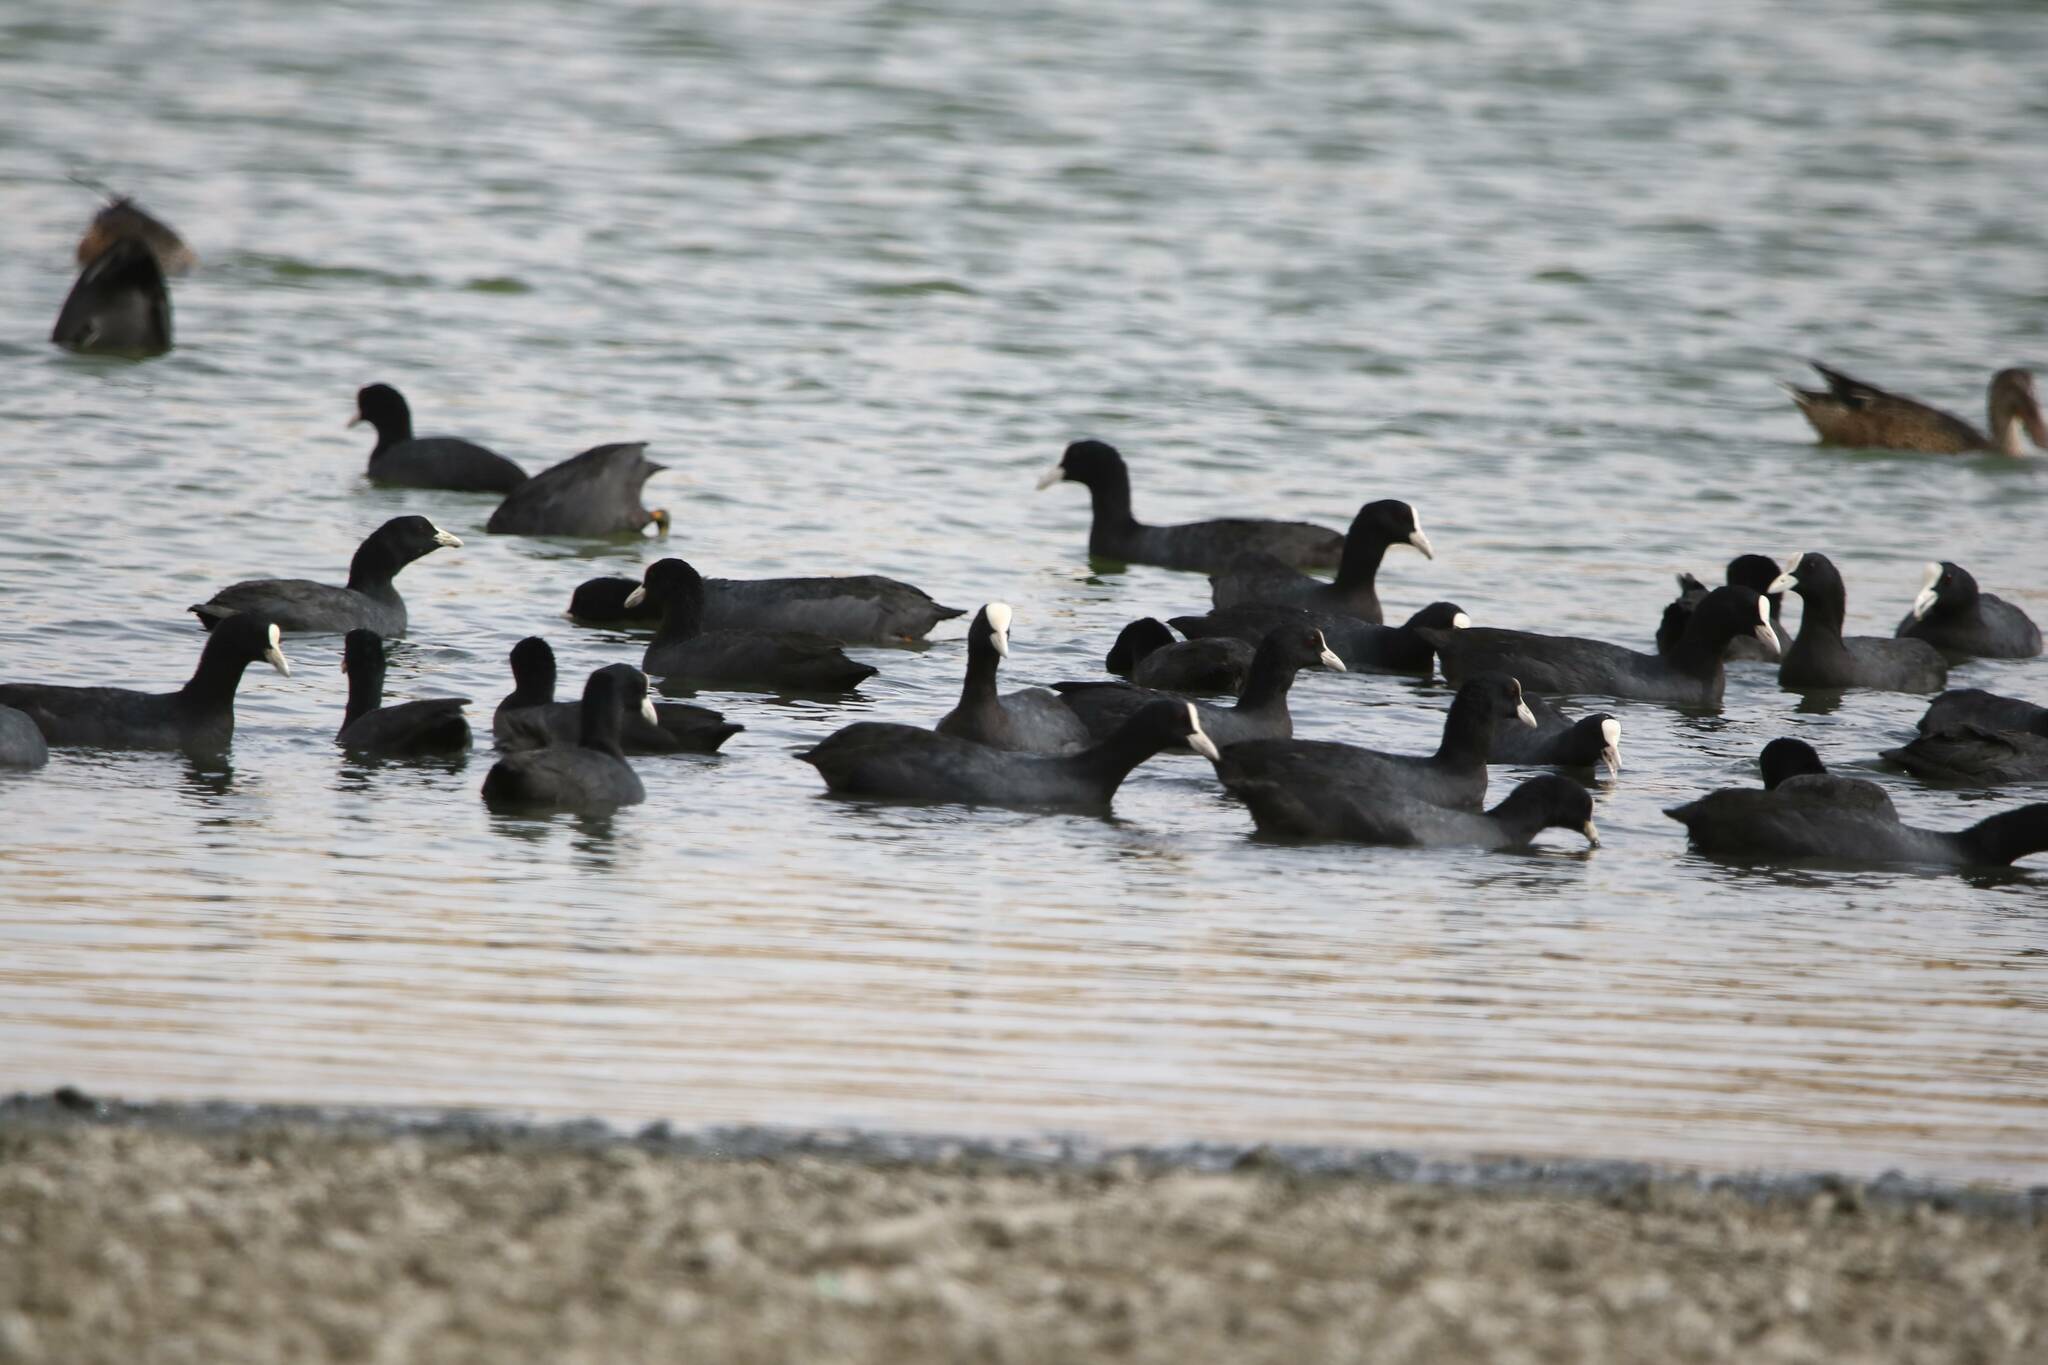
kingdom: Animalia
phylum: Chordata
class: Aves
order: Gruiformes
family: Rallidae
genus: Fulica
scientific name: Fulica atra
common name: Eurasian coot
